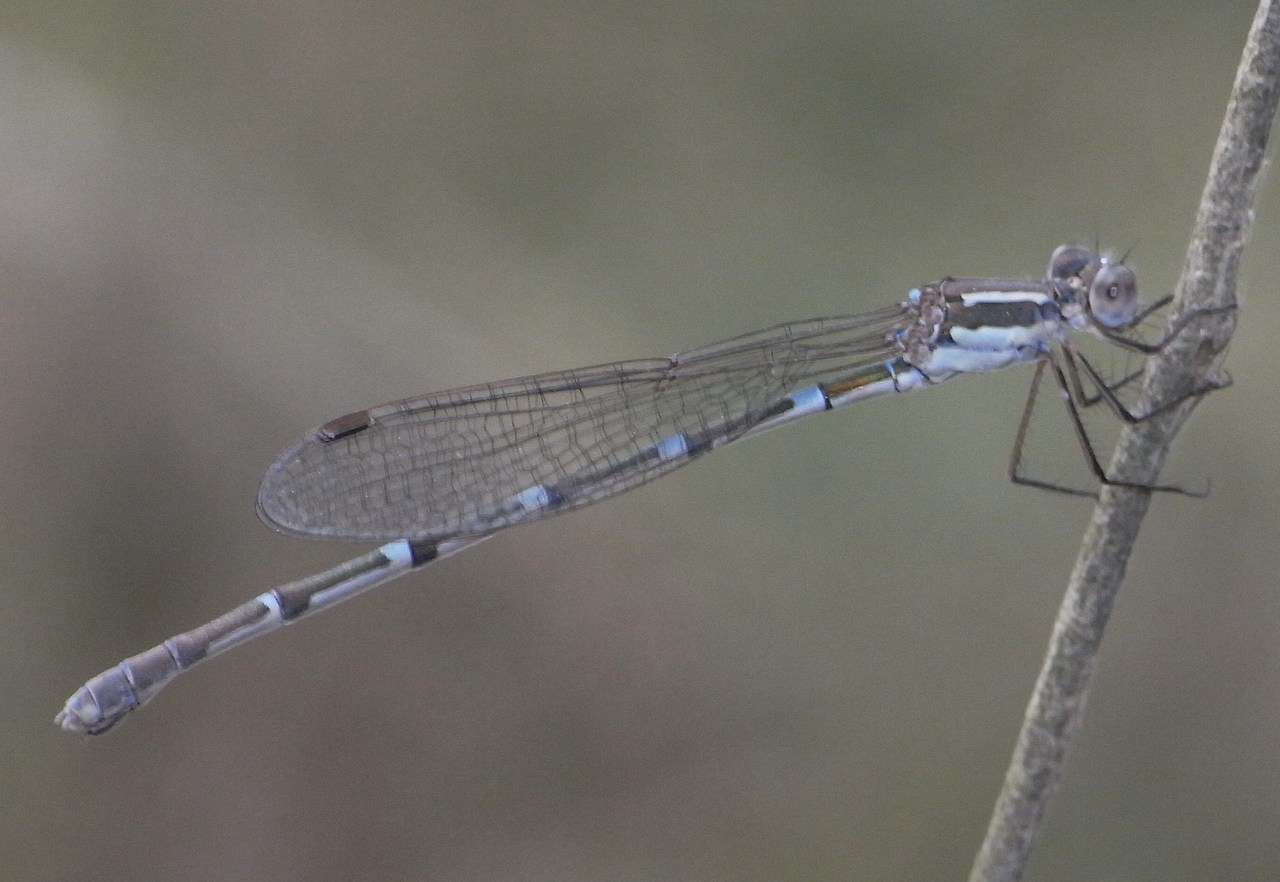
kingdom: Animalia
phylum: Arthropoda
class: Insecta
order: Odonata
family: Lestidae
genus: Austrolestes
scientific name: Austrolestes leda
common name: Wandering ringtail
